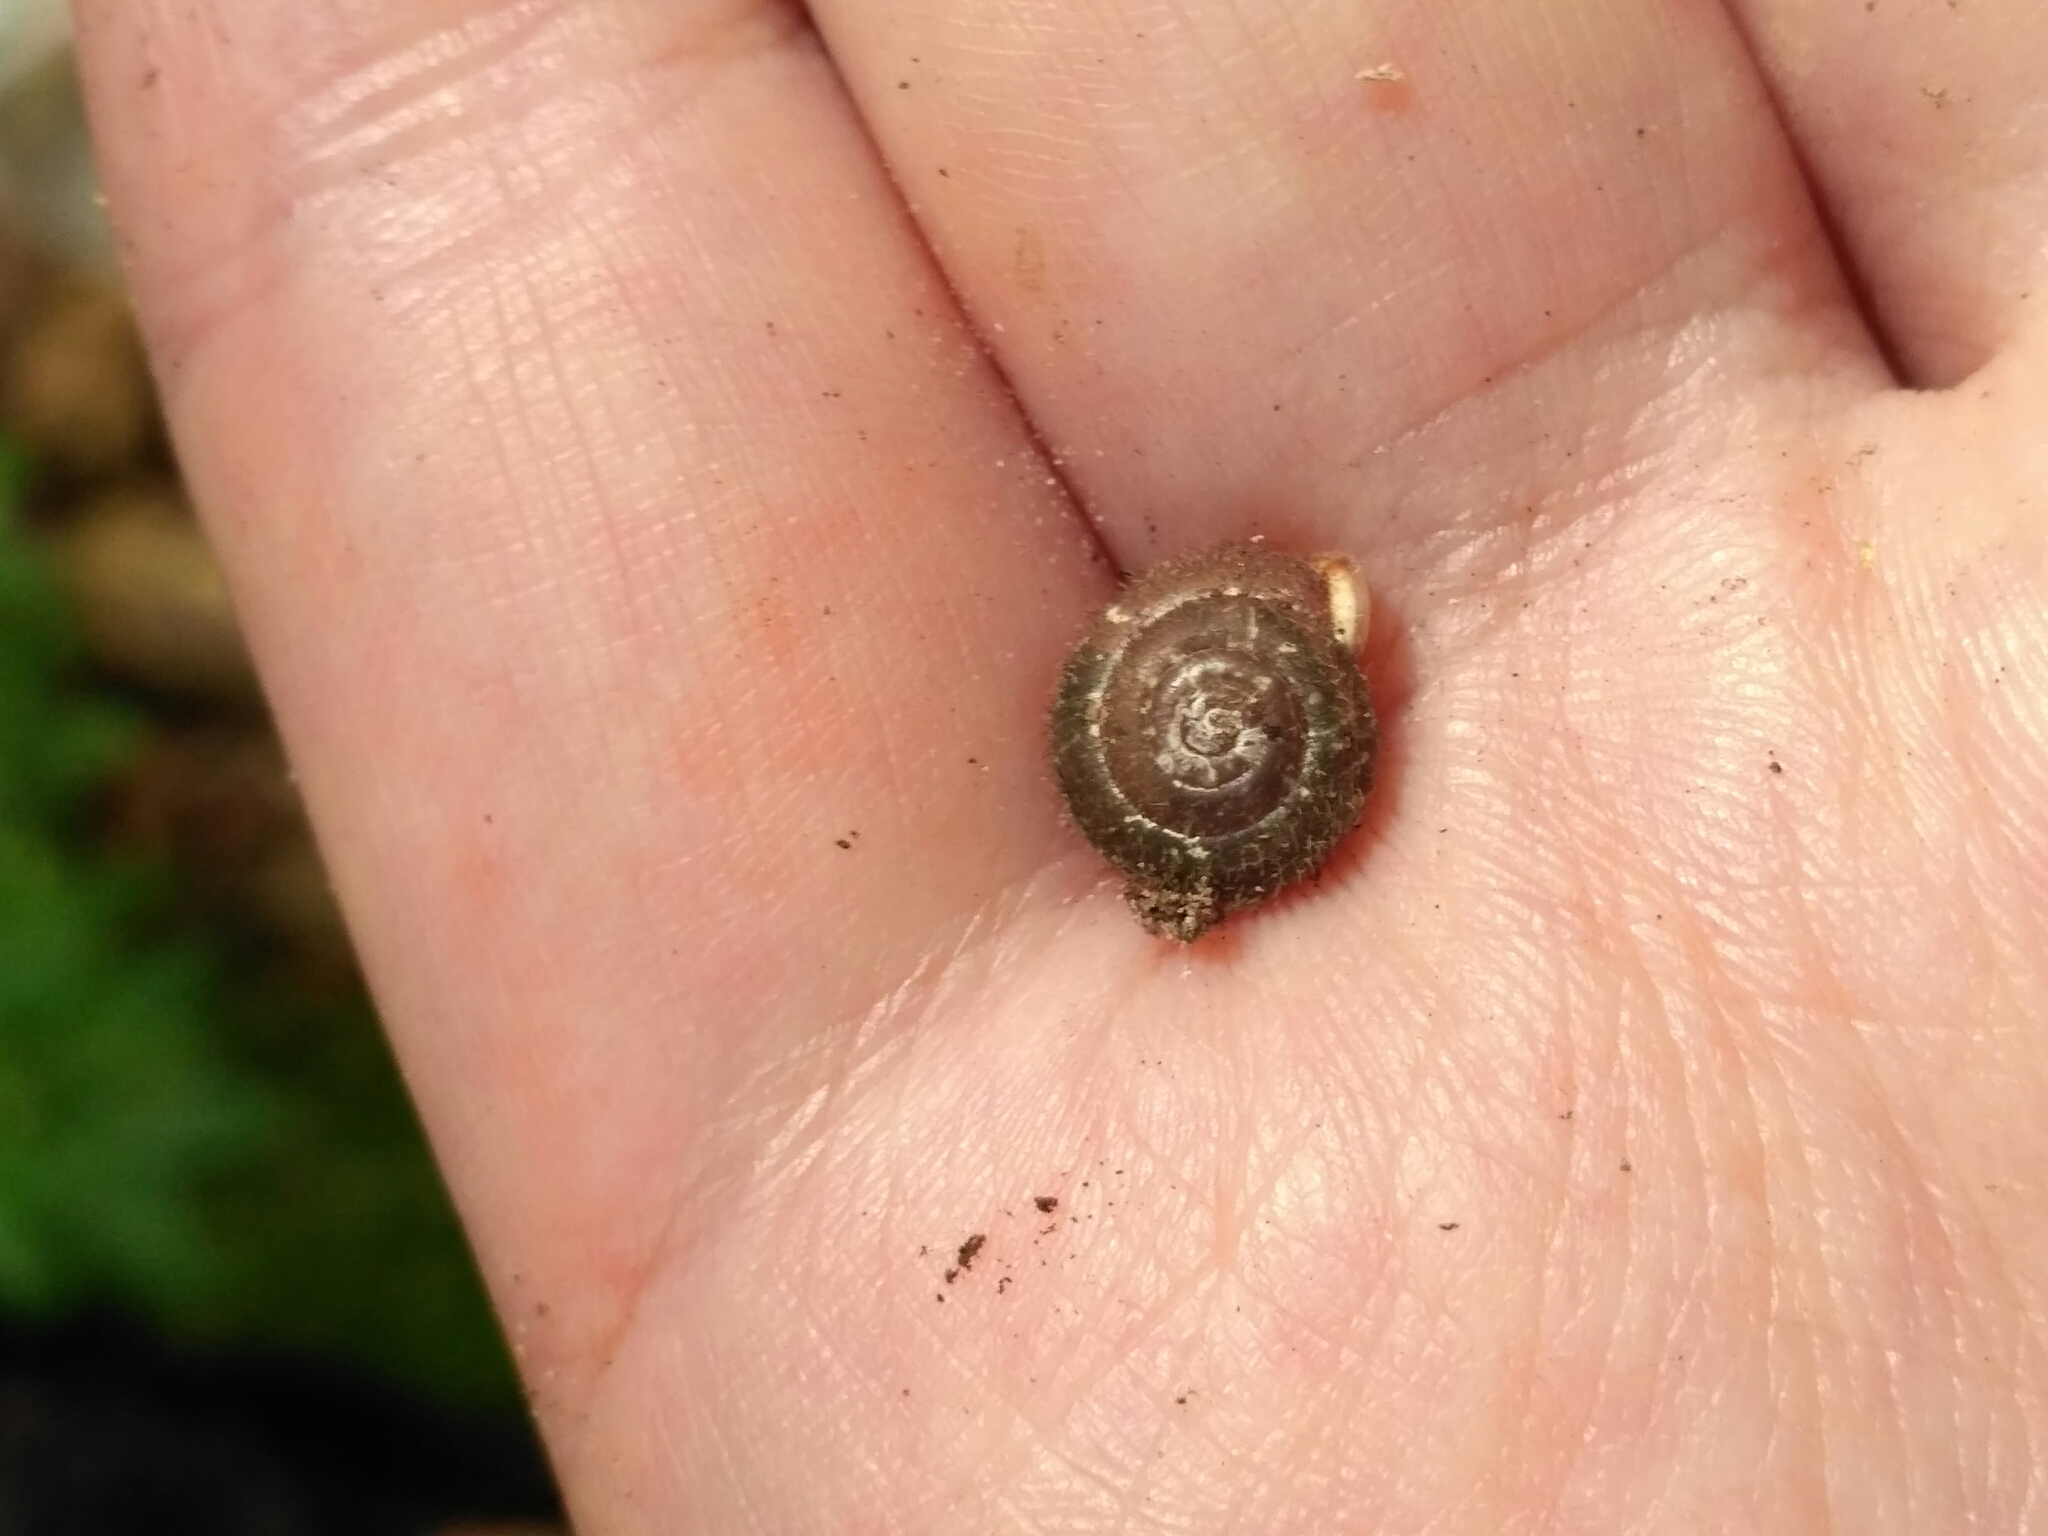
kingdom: Animalia
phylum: Mollusca
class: Gastropoda
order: Stylommatophora
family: Helicidae
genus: Isognomostoma
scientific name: Isognomostoma isognomostomos
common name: Mask snail
